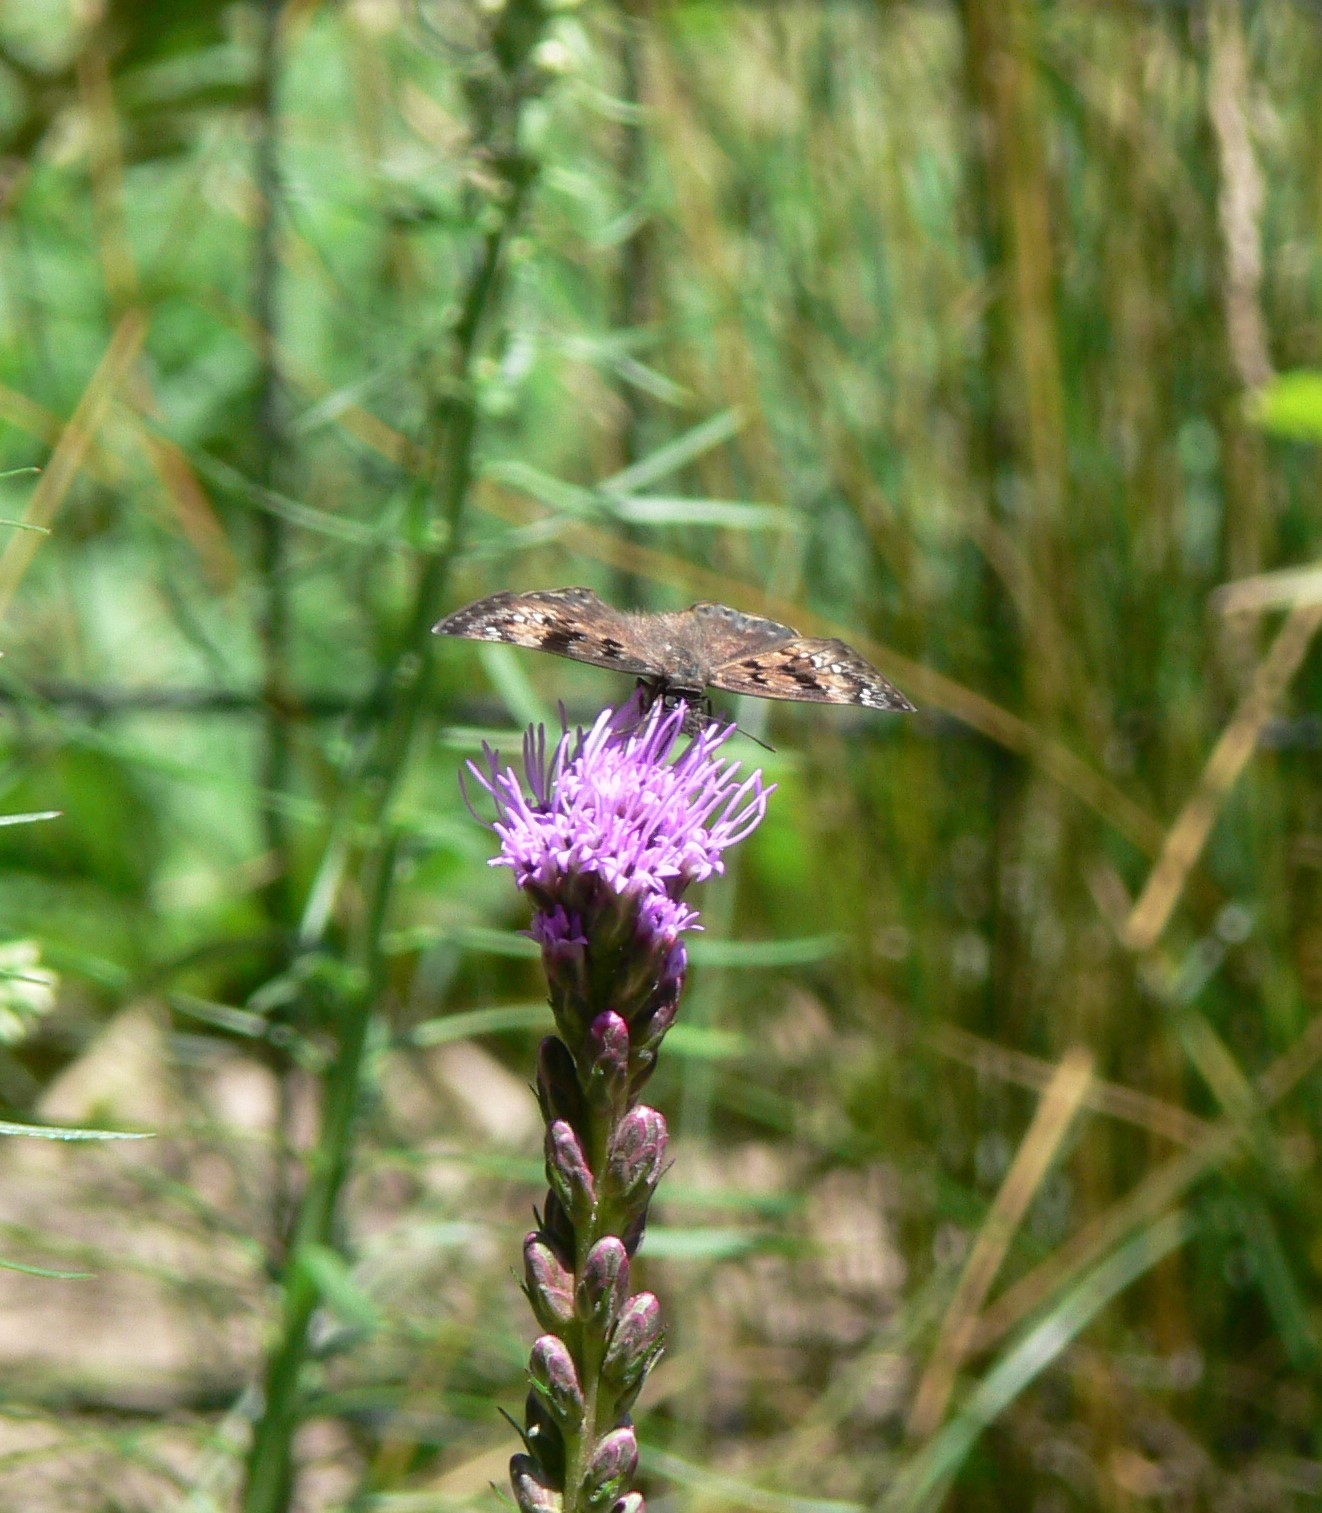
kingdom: Animalia
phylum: Arthropoda
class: Insecta
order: Lepidoptera
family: Hesperiidae
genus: Erynnis
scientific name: Erynnis horatius
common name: Horace's duskywing
